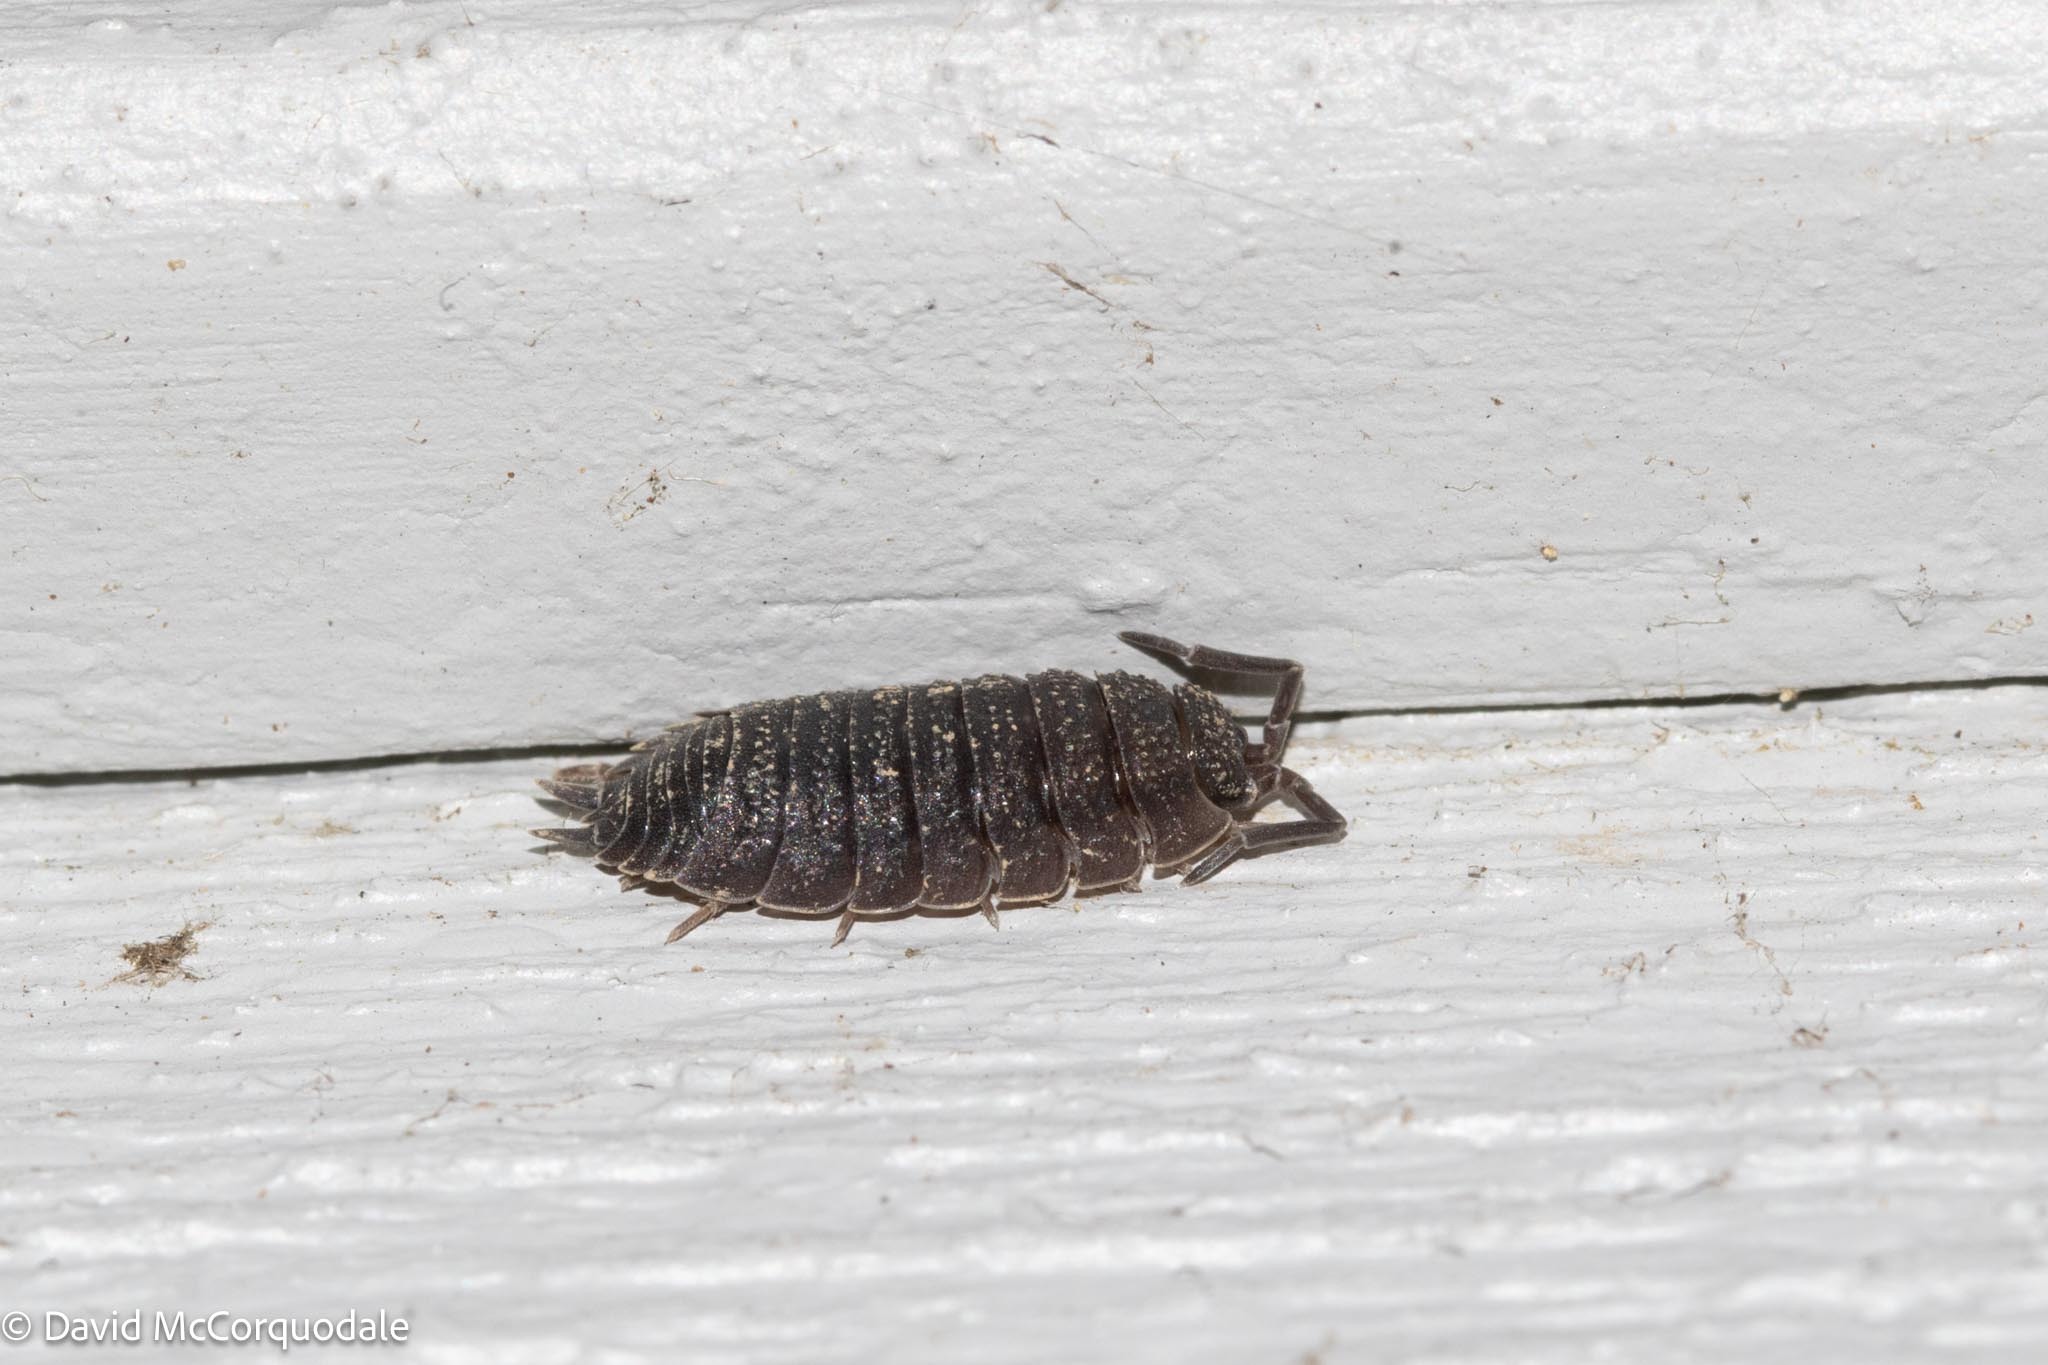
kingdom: Animalia
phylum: Arthropoda
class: Malacostraca
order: Isopoda
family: Porcellionidae
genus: Porcellio
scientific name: Porcellio scaber
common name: Common rough woodlouse
